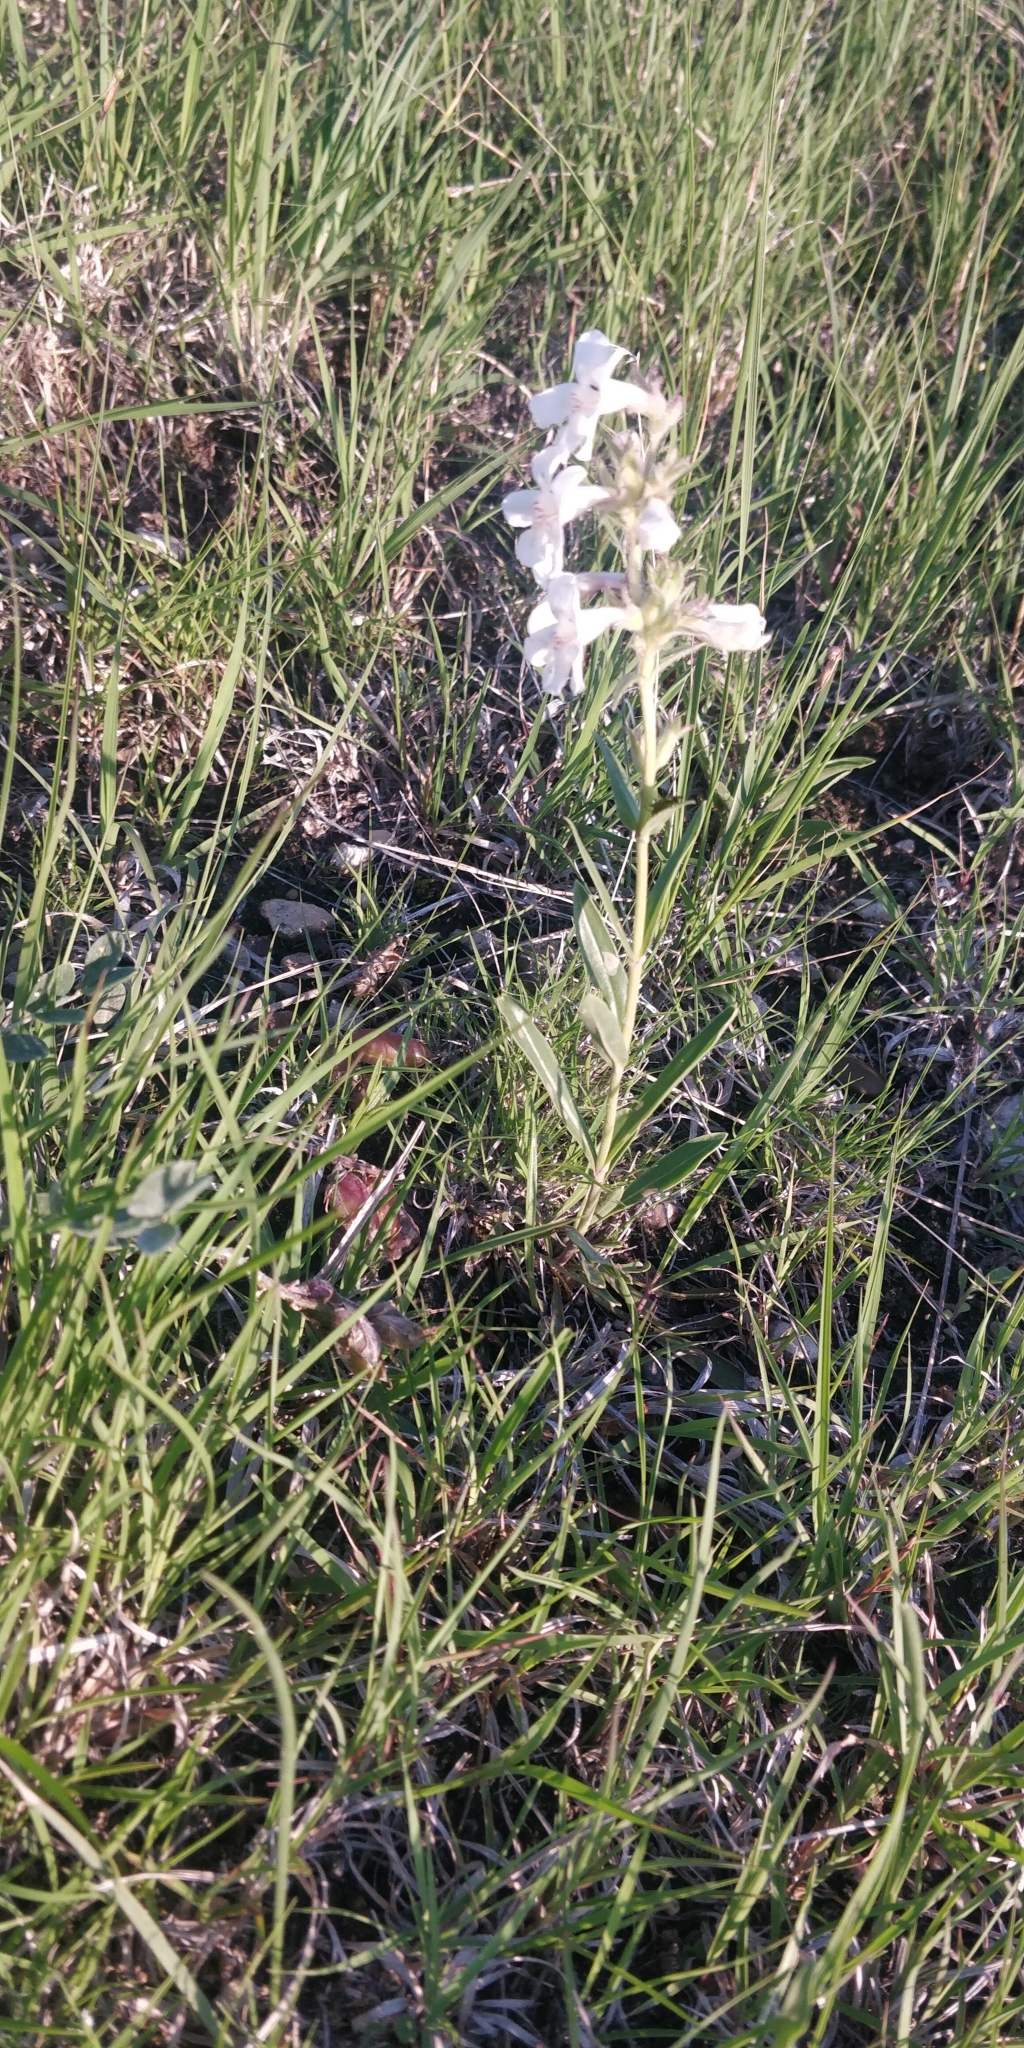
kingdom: Plantae
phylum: Tracheophyta
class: Magnoliopsida
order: Lamiales
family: Plantaginaceae
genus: Penstemon
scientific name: Penstemon albidus
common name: White beardtongue
